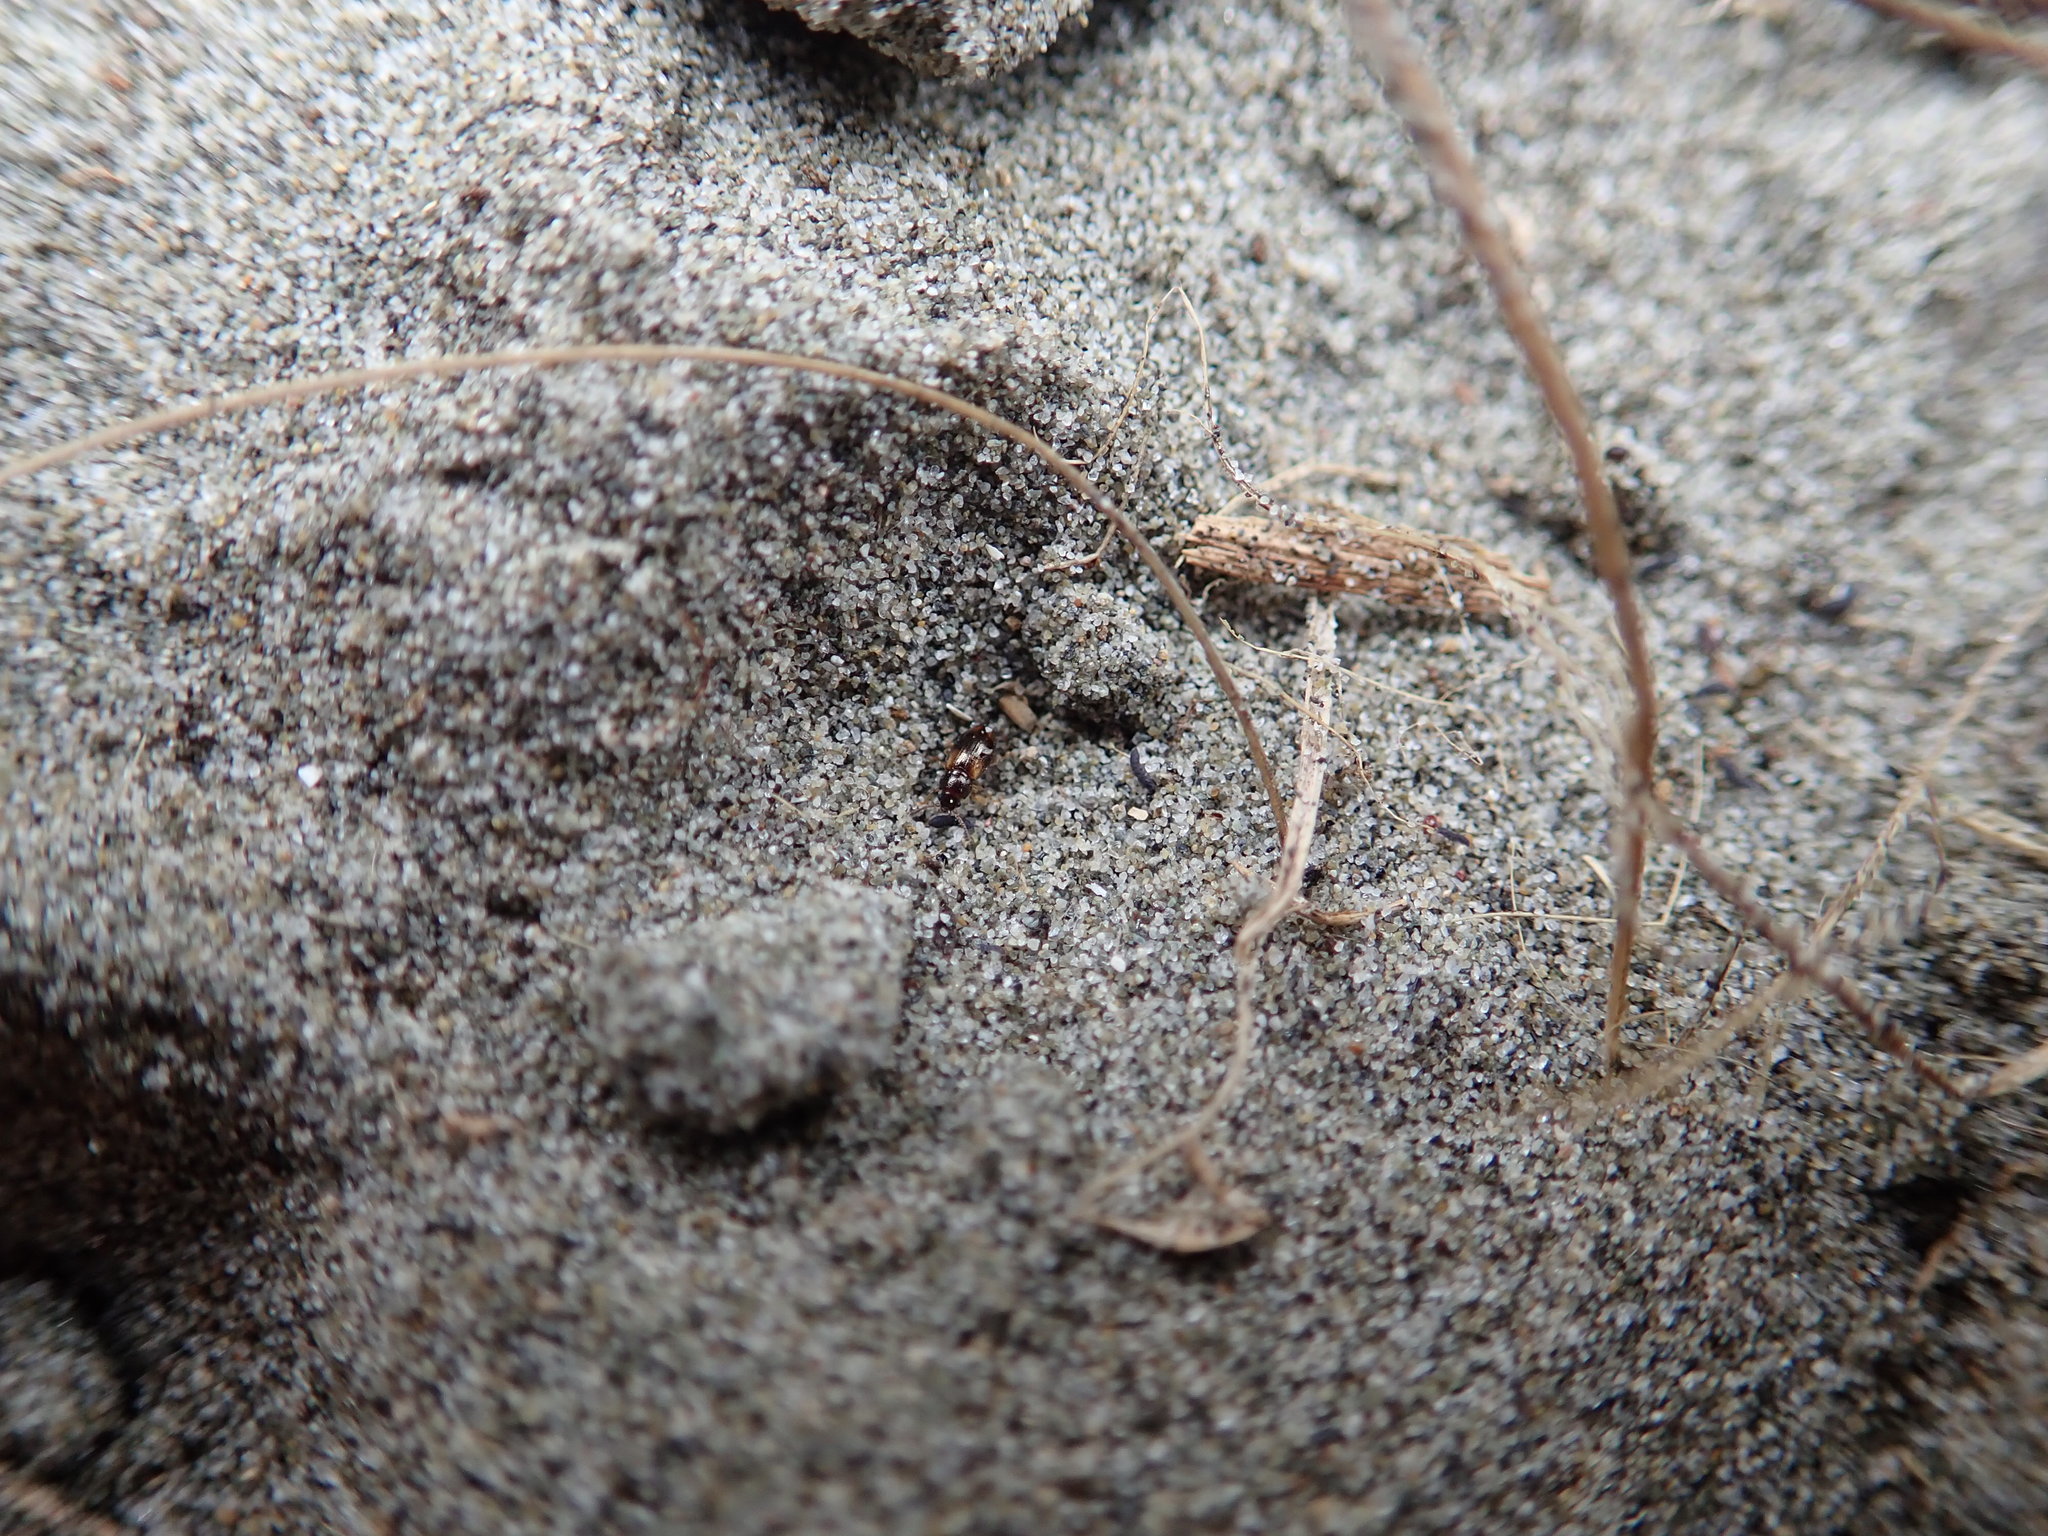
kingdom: Animalia
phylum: Arthropoda
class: Insecta
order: Coleoptera
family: Erotylidae
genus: Loberus
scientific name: Loberus nitens
